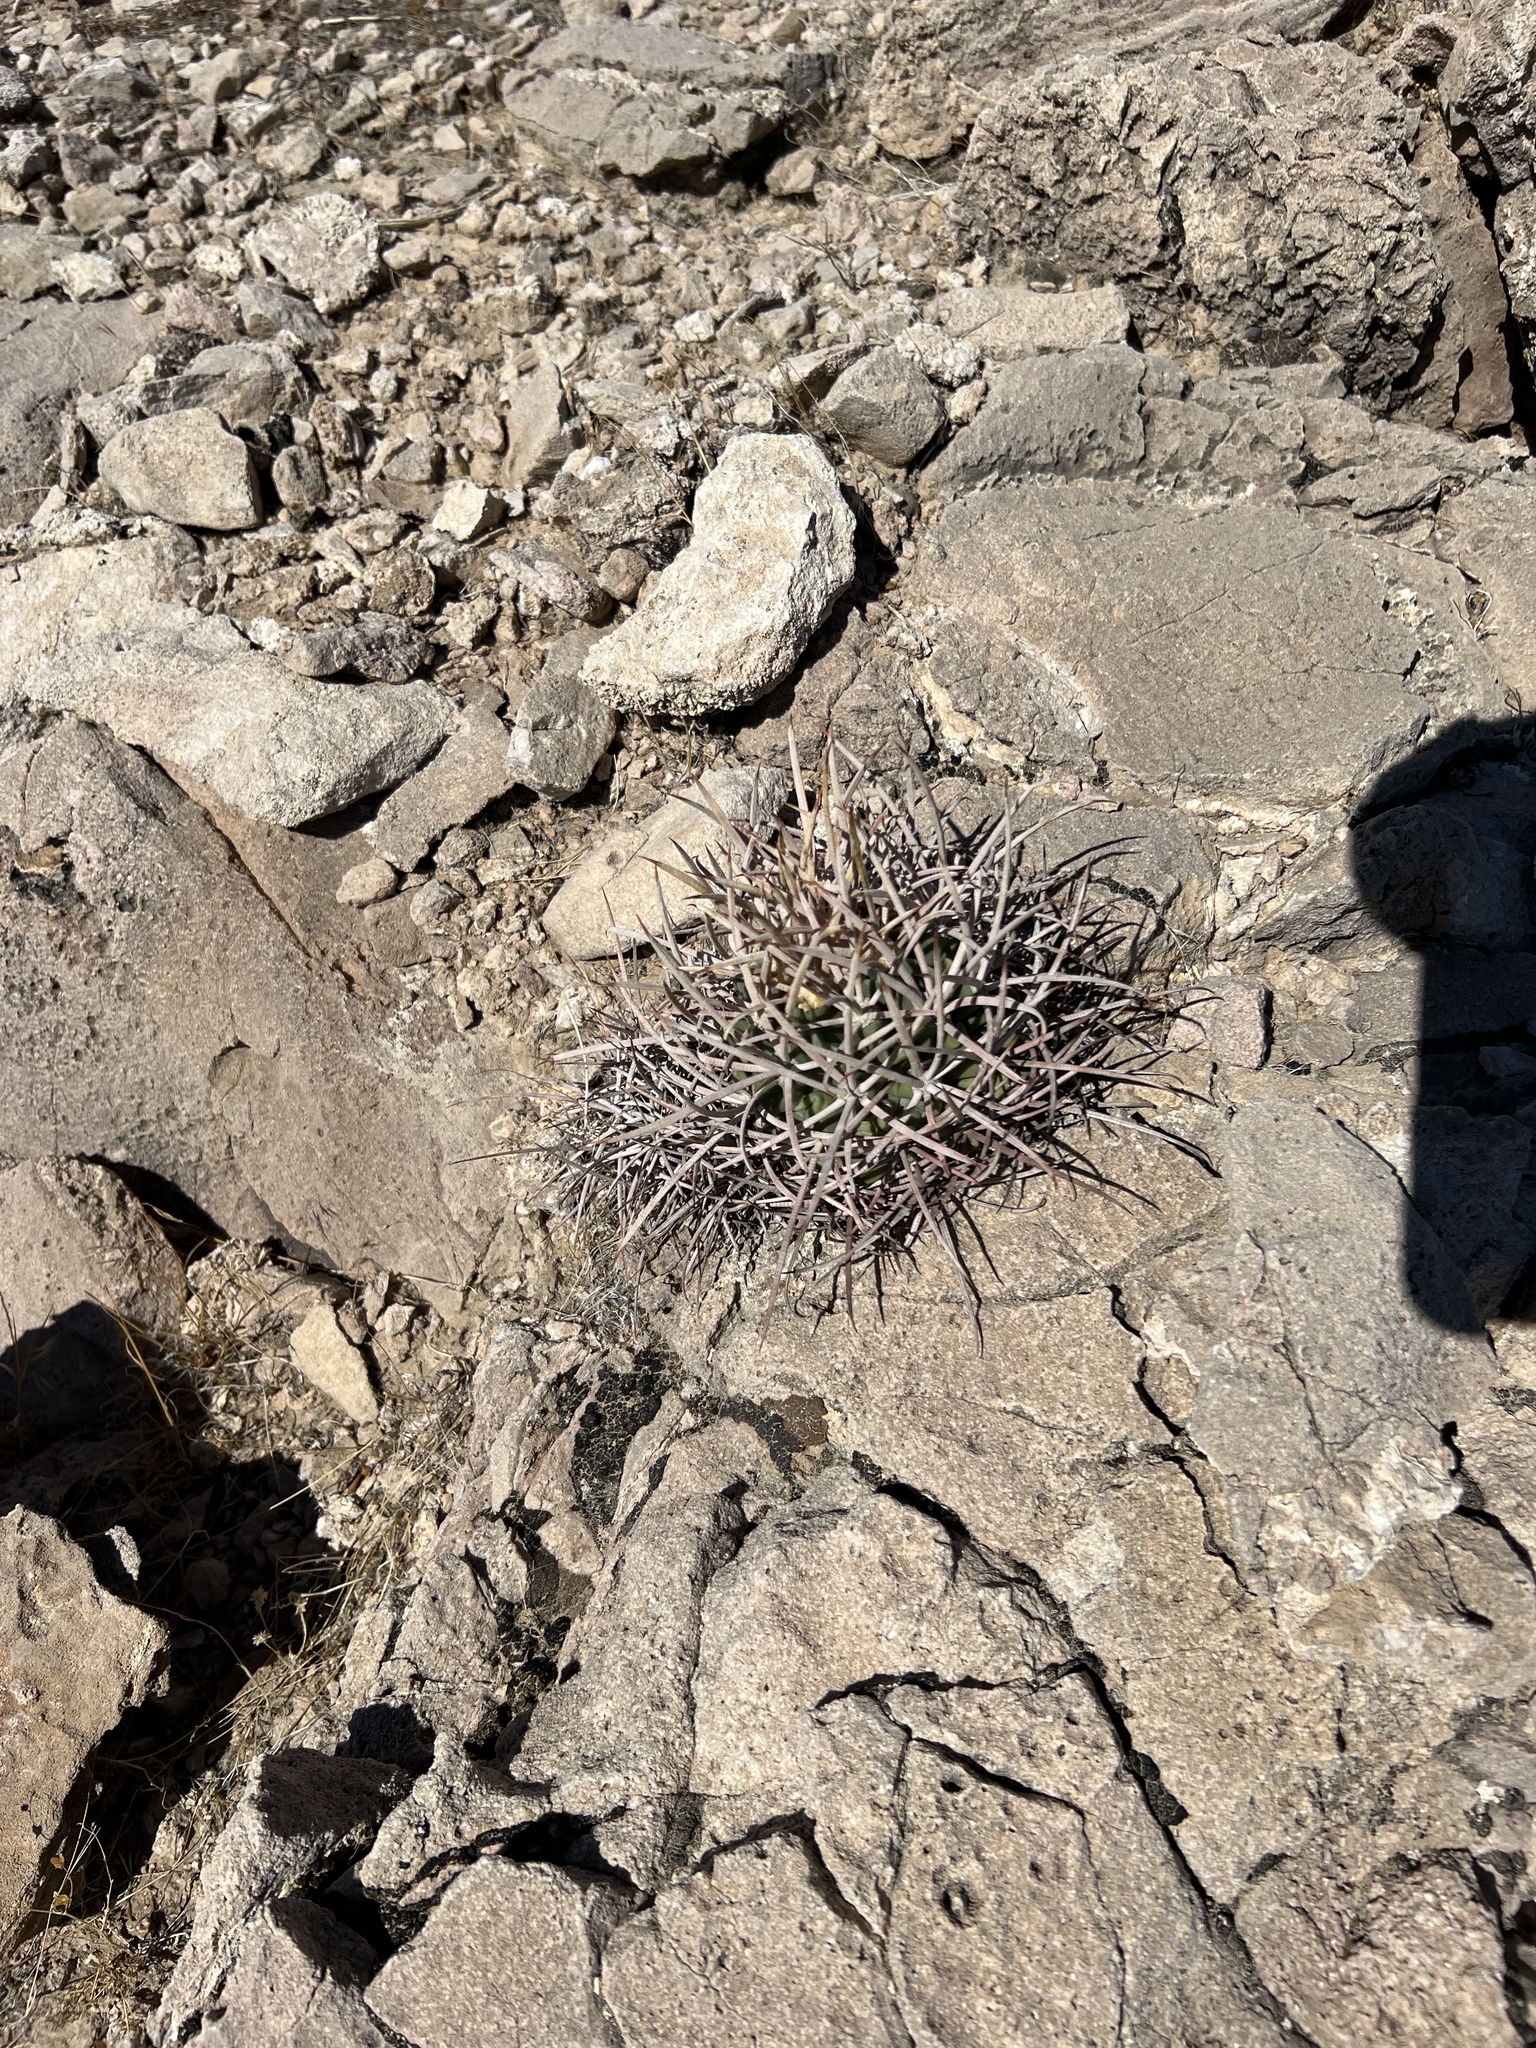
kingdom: Plantae
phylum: Tracheophyta
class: Magnoliopsida
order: Caryophyllales
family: Cactaceae
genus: Echinocactus
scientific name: Echinocactus polycephalus
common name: Cottontop cactus
